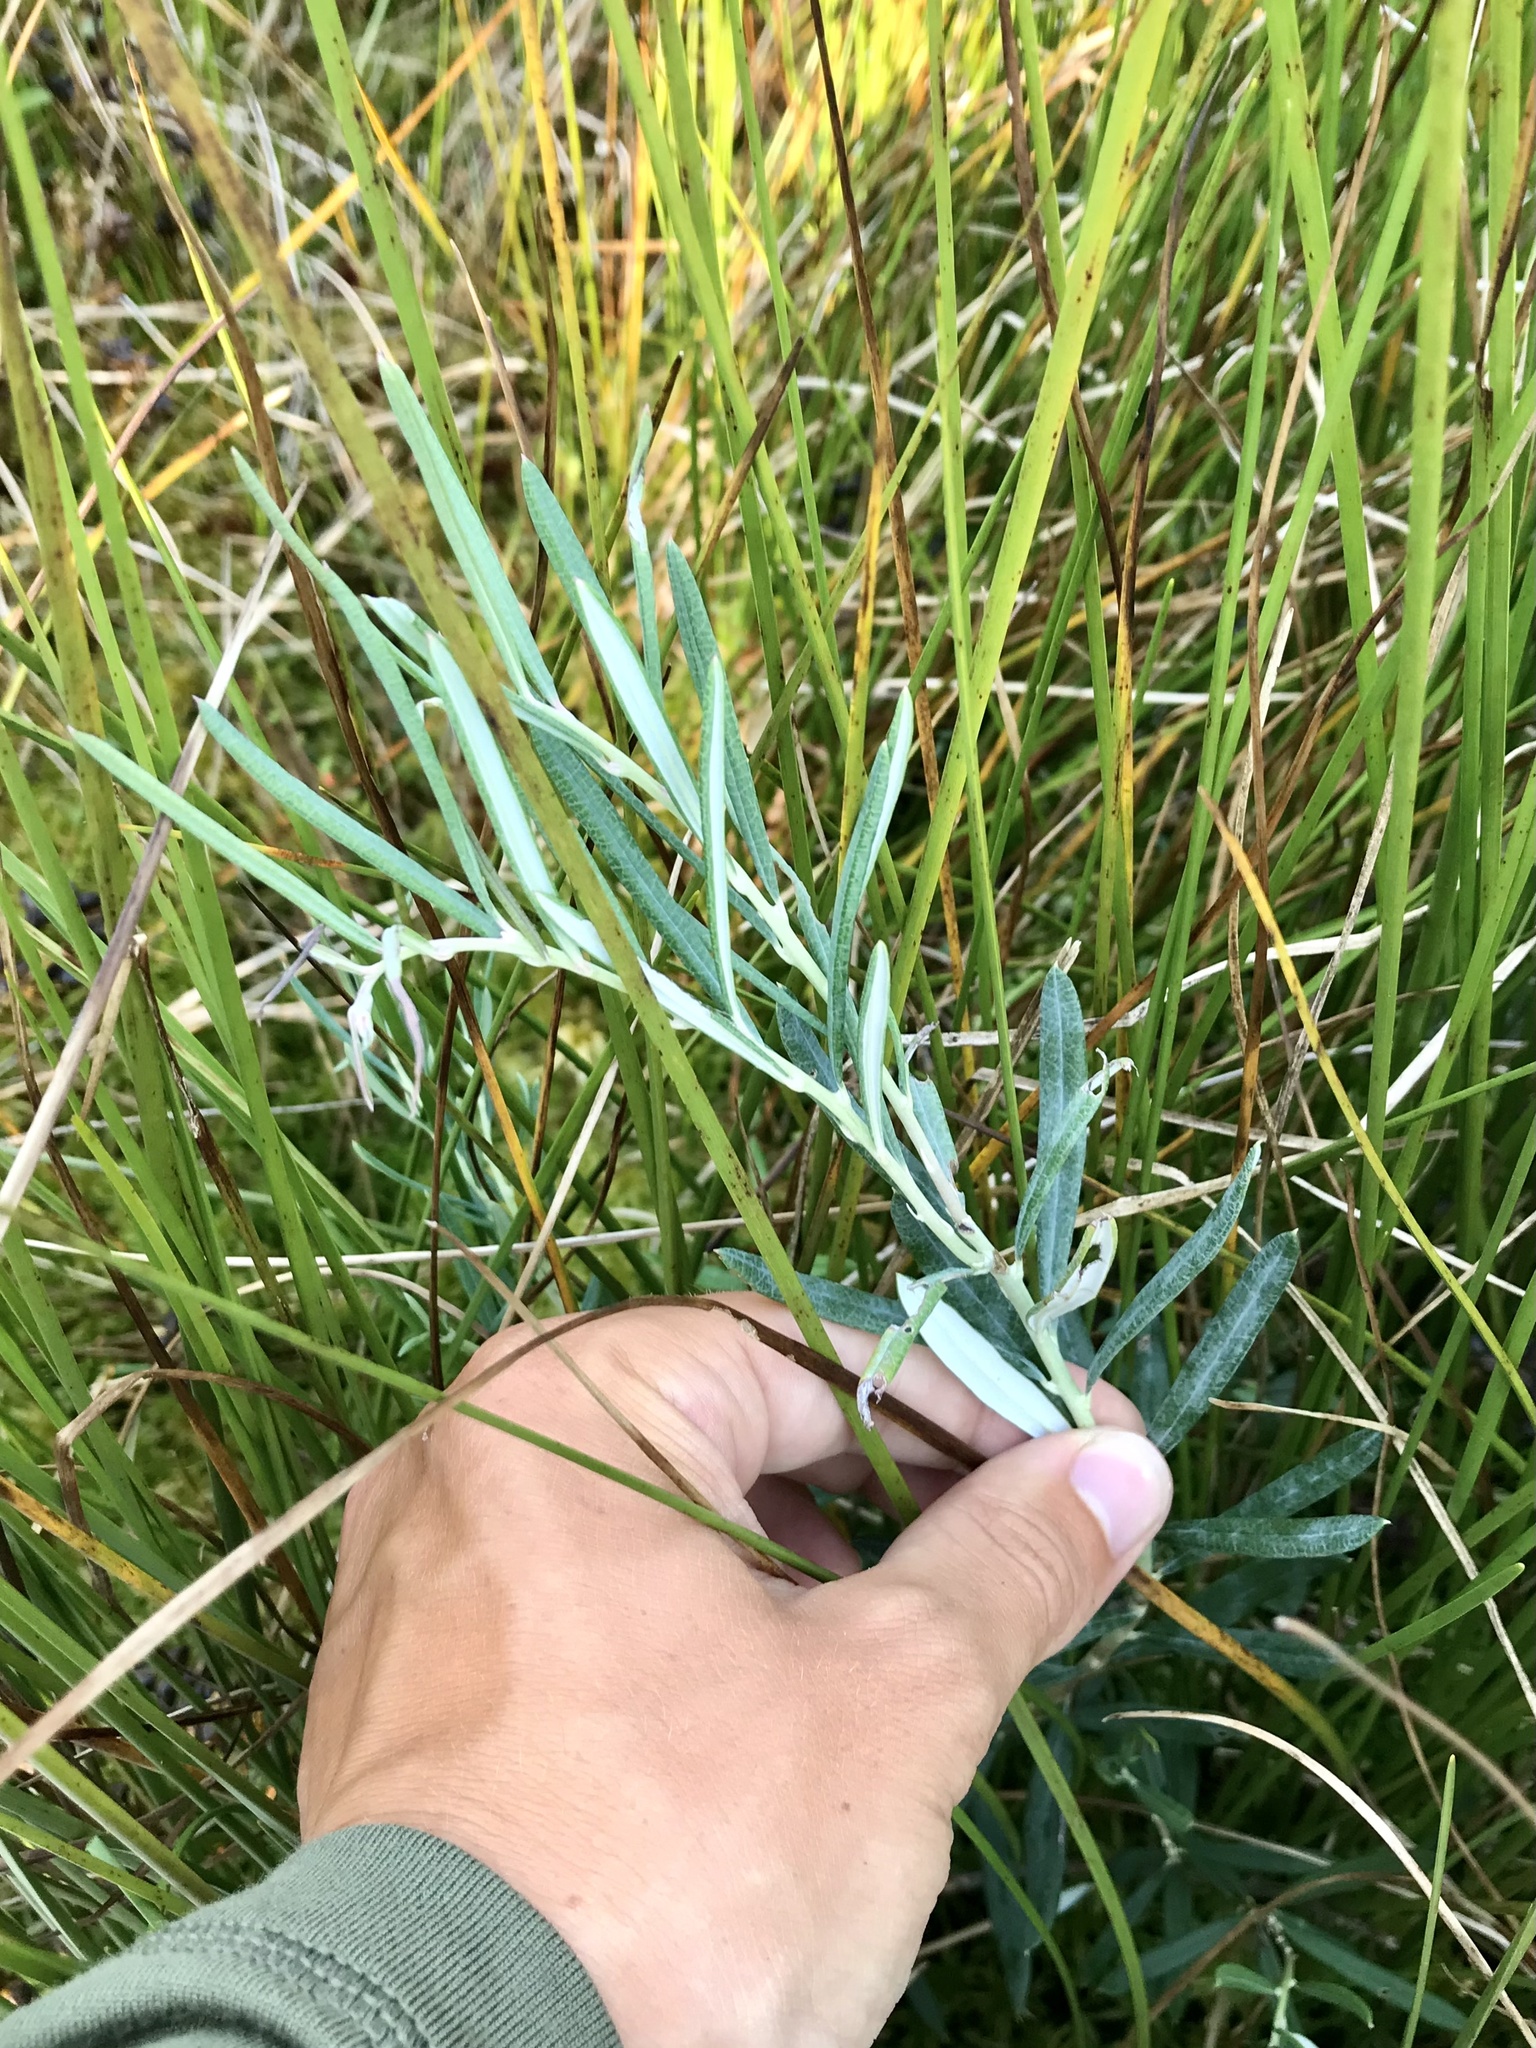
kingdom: Plantae
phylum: Tracheophyta
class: Magnoliopsida
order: Ericales
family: Ericaceae
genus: Andromeda
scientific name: Andromeda polifolia
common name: Bog-rosemary
